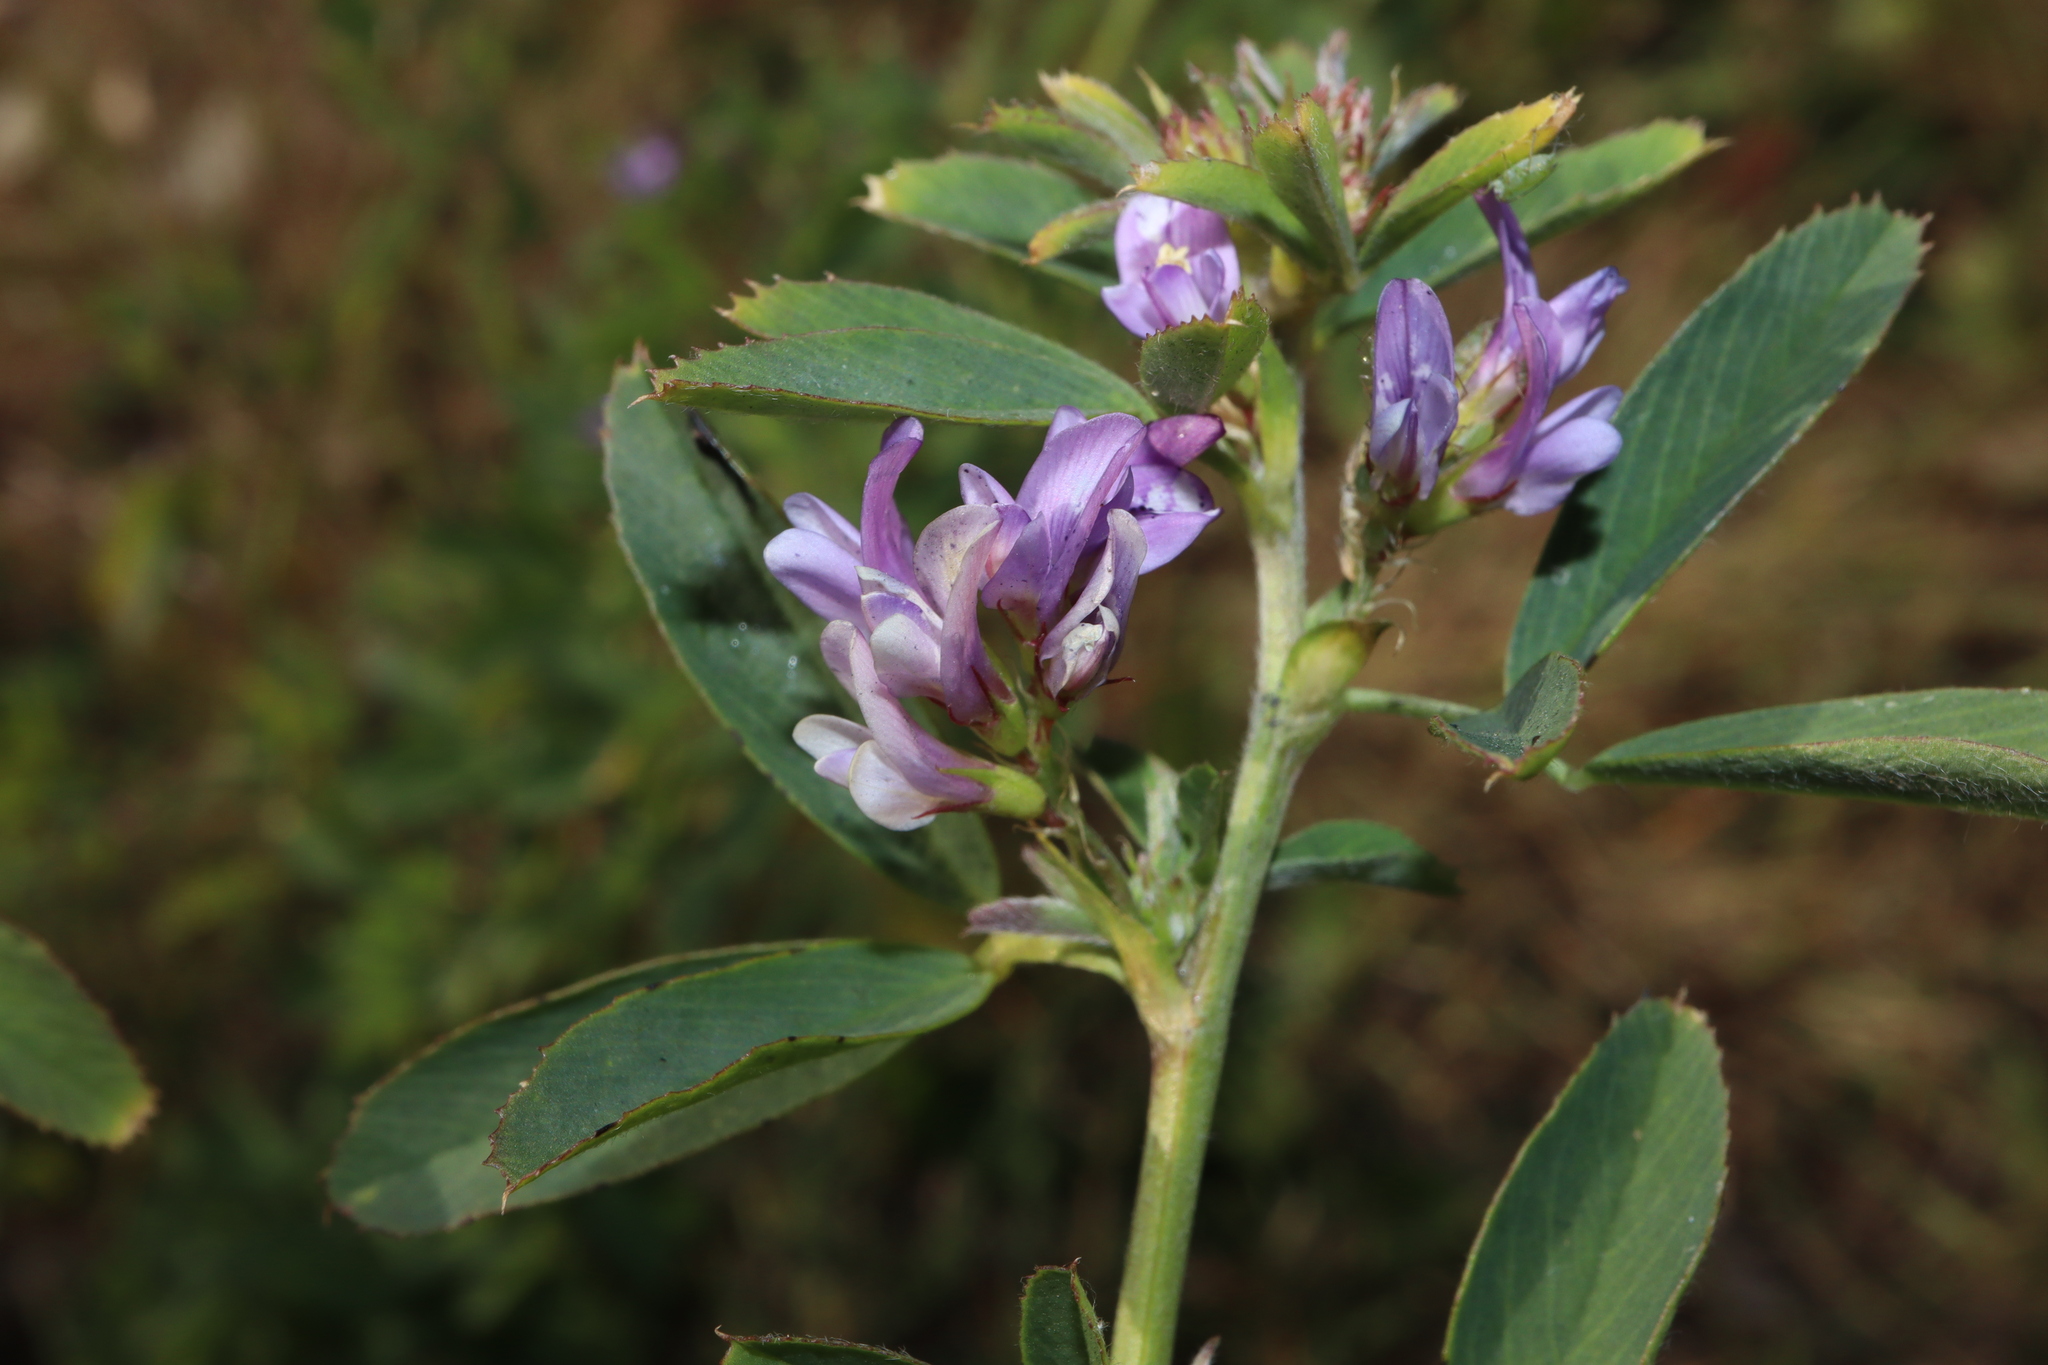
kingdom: Plantae
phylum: Tracheophyta
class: Magnoliopsida
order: Fabales
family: Fabaceae
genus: Medicago
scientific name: Medicago sativa
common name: Alfalfa
